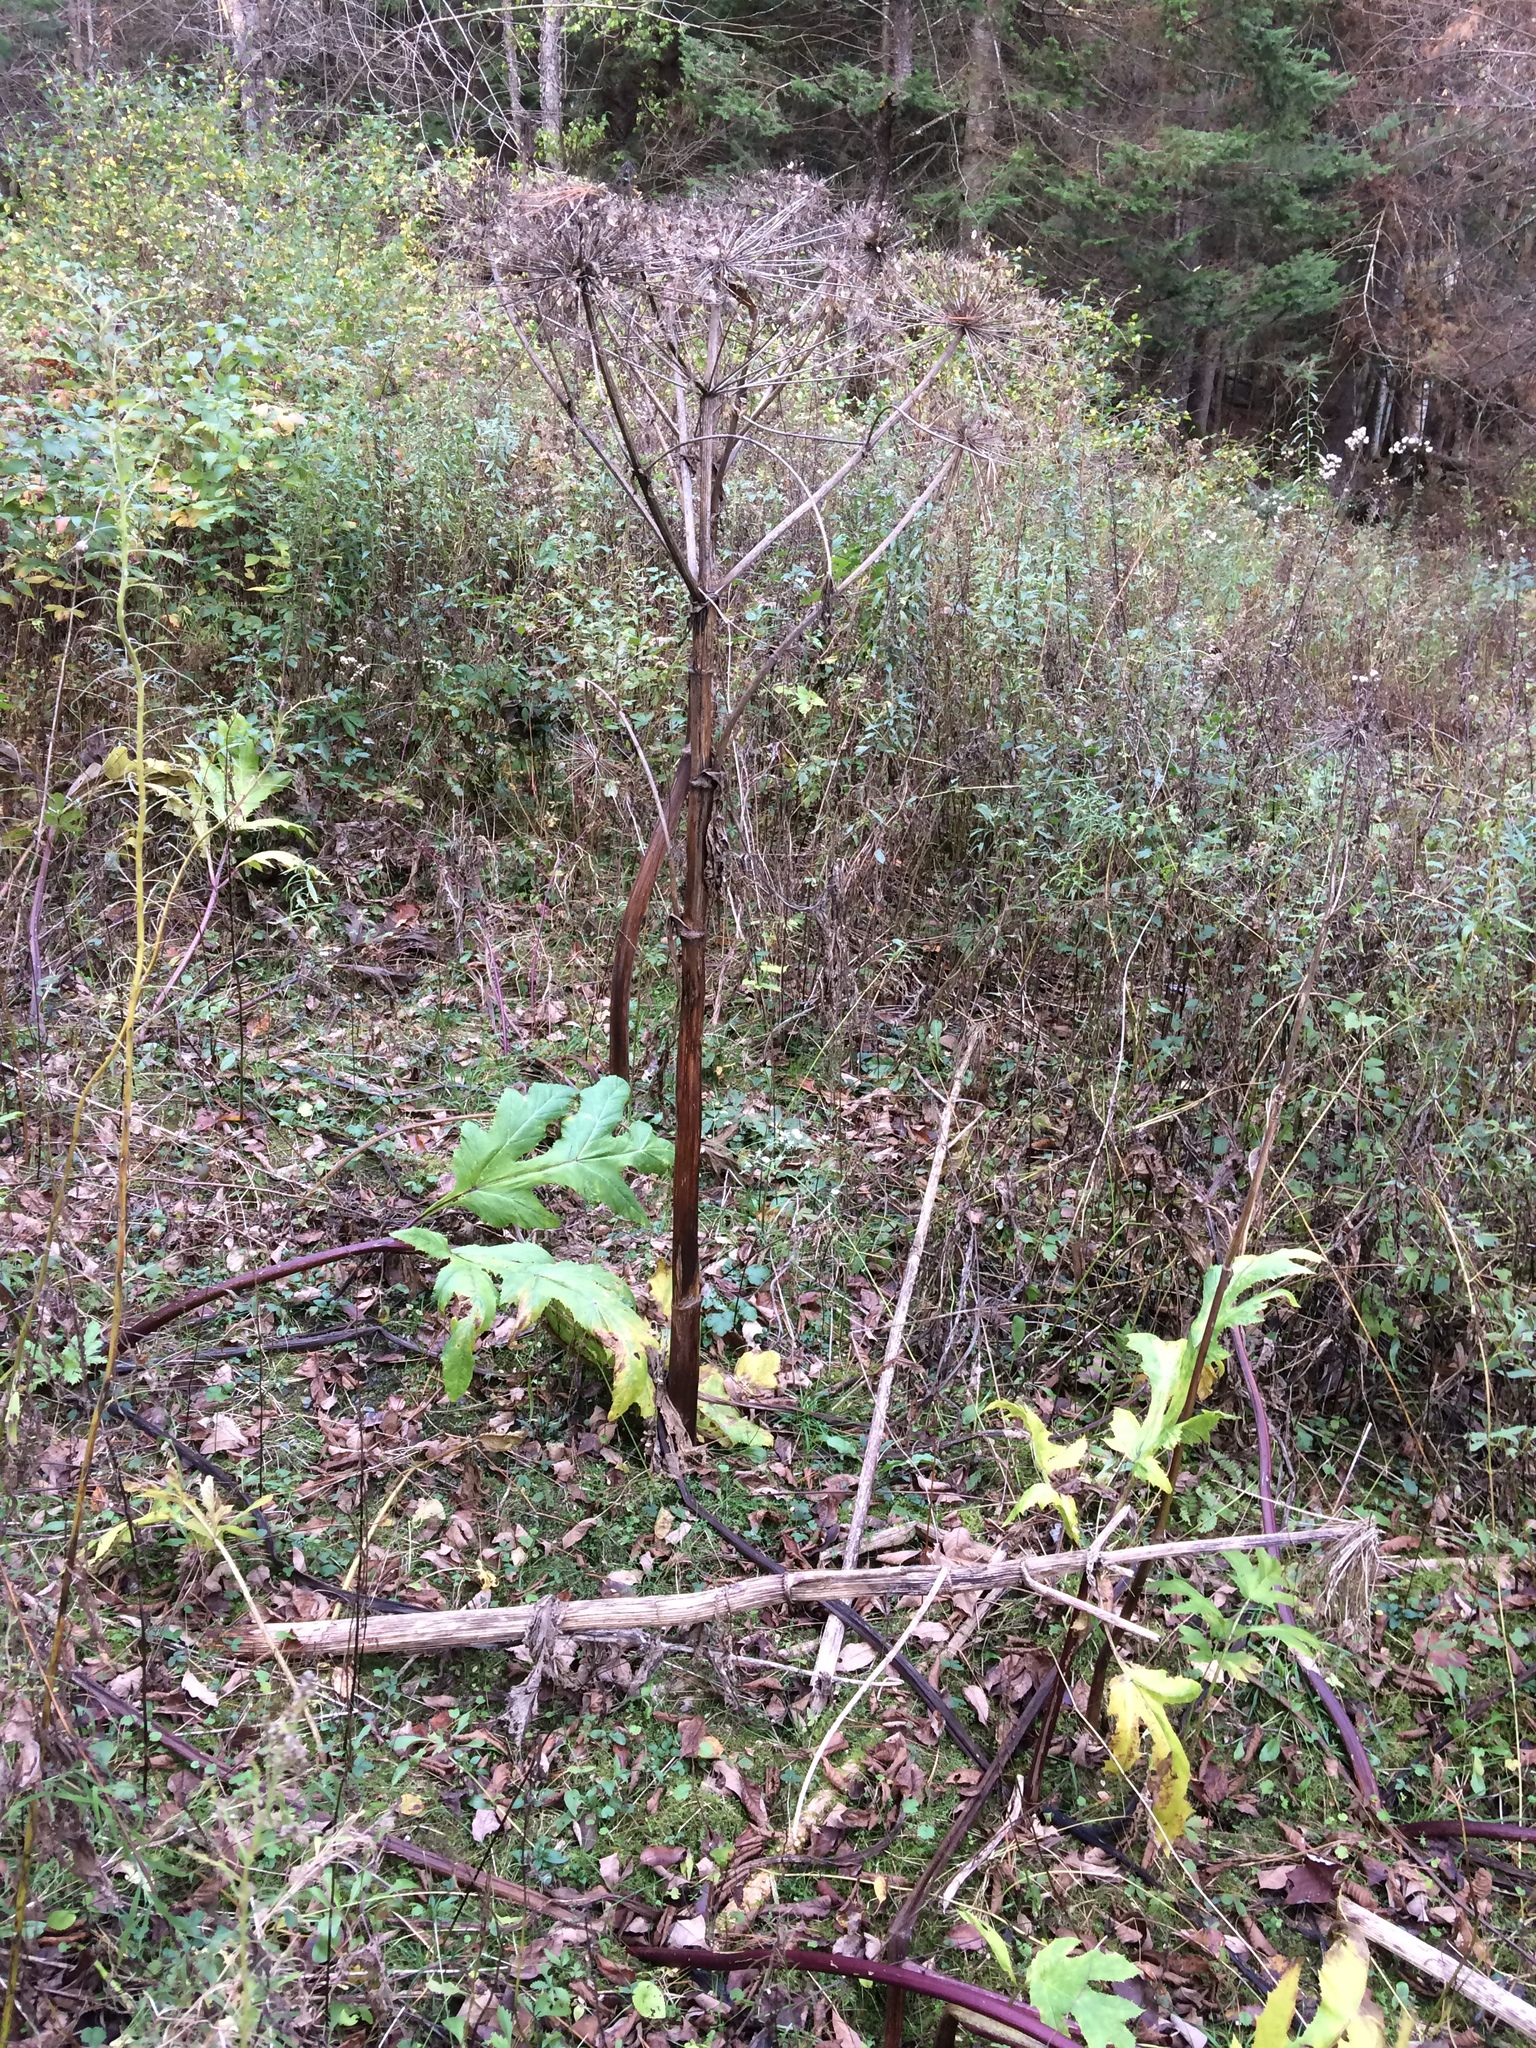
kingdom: Plantae
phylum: Tracheophyta
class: Magnoliopsida
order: Apiales
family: Apiaceae
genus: Heracleum
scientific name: Heracleum mantegazzianum
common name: Giant hogweed
